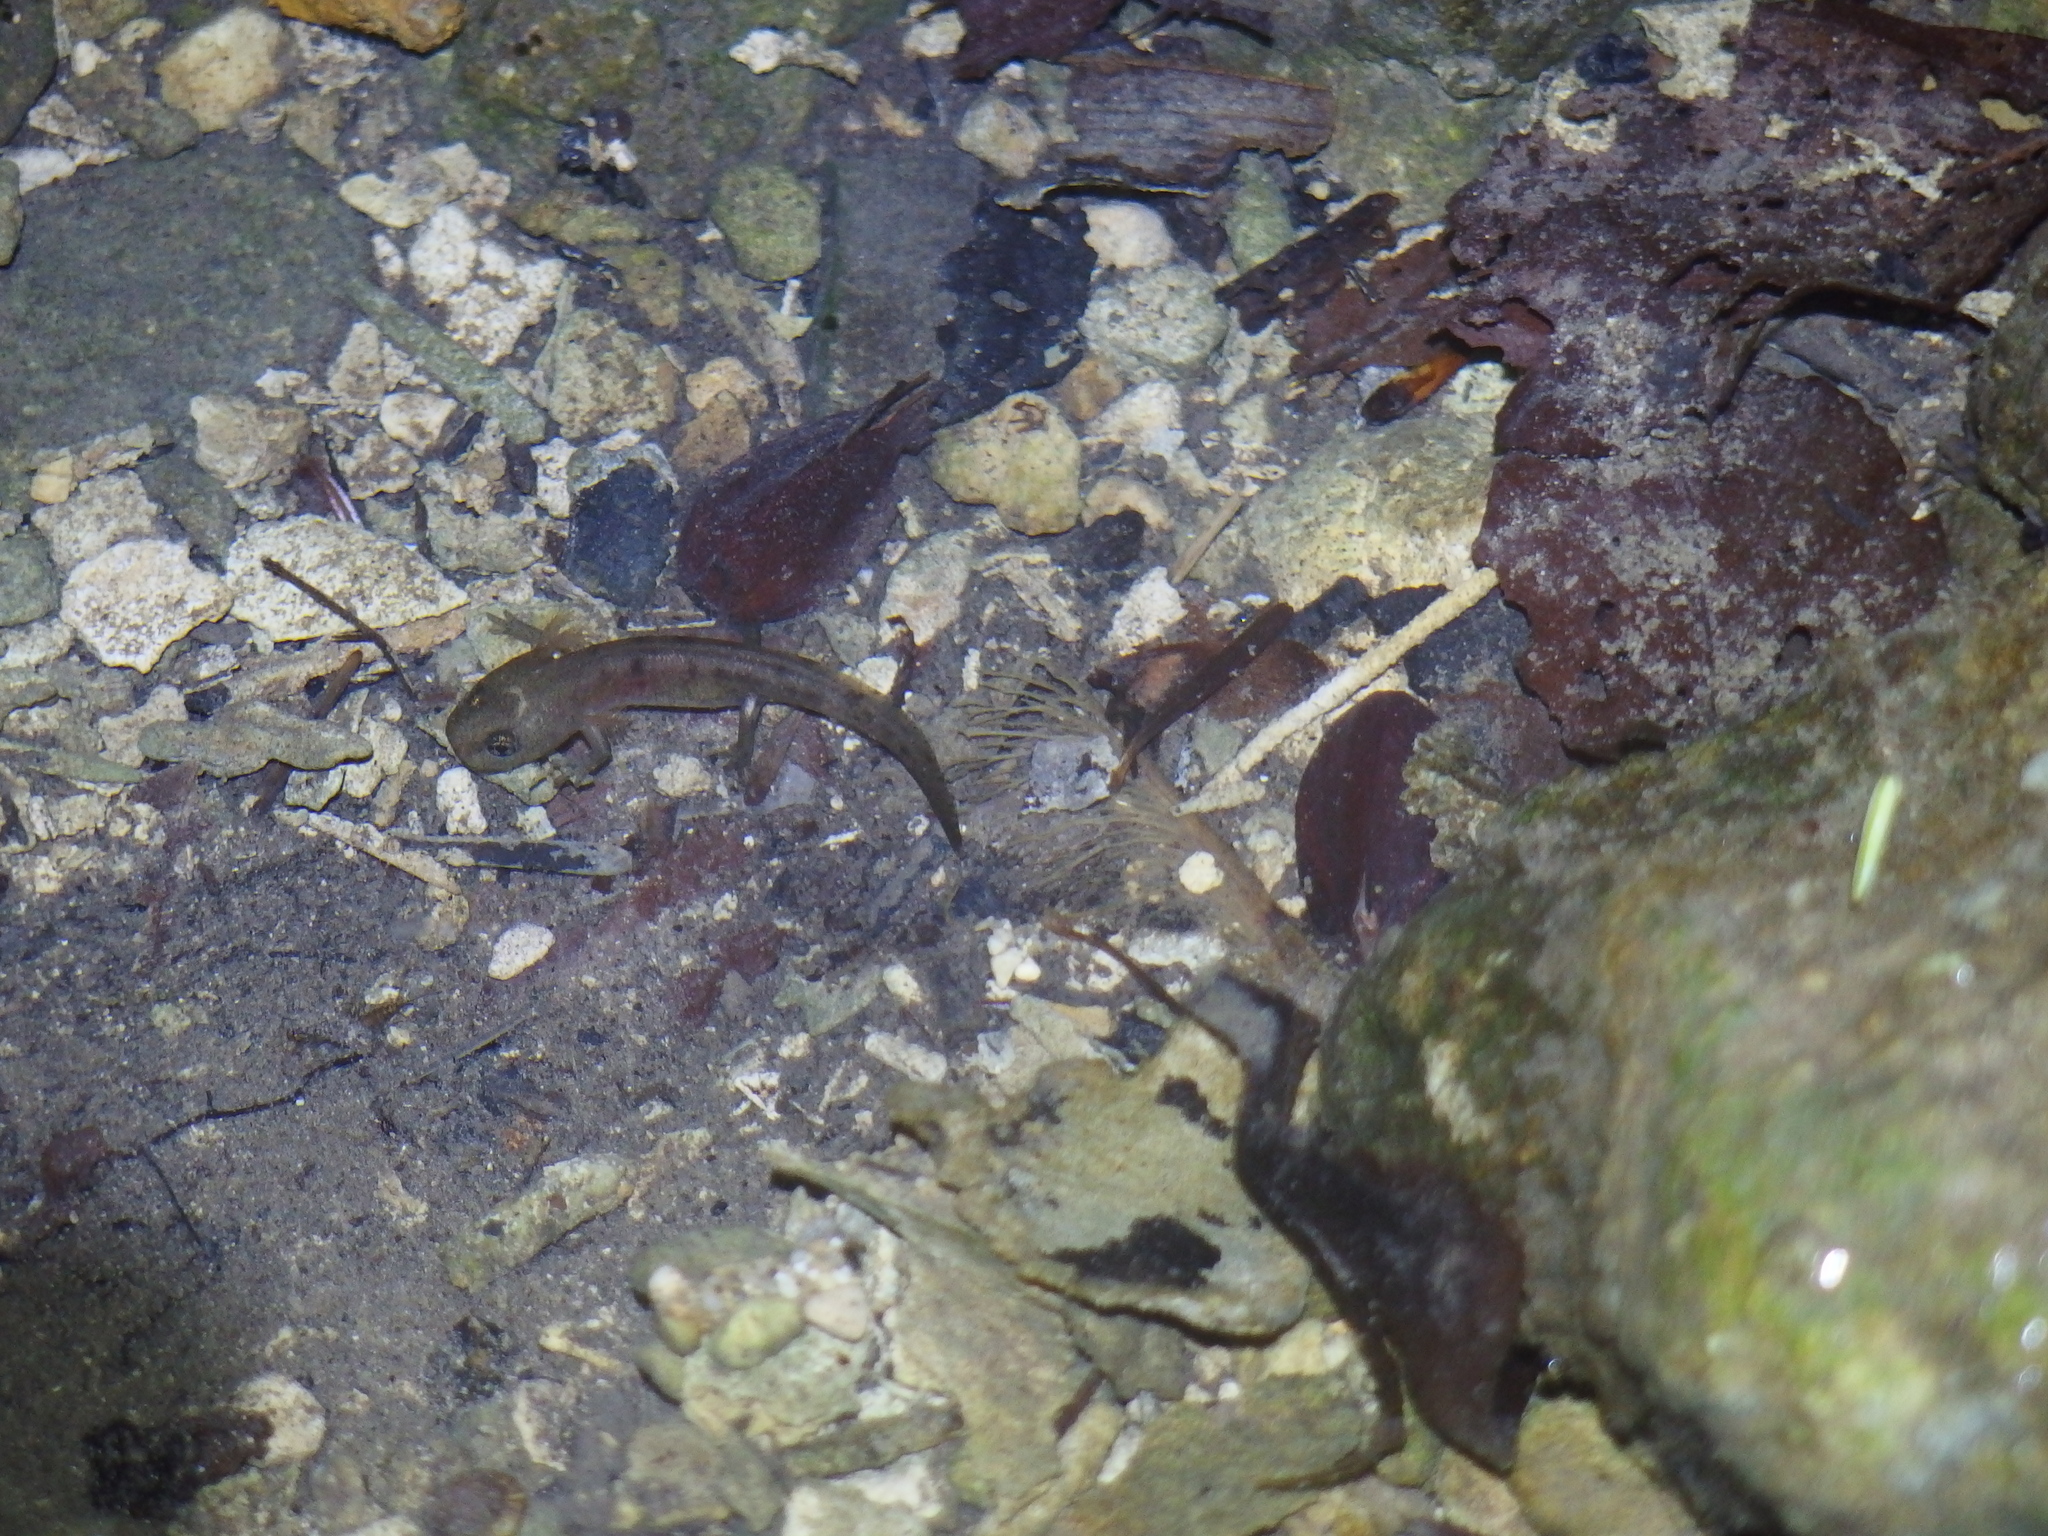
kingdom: Animalia
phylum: Chordata
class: Amphibia
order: Caudata
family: Salamandridae
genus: Salamandra
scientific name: Salamandra salamandra
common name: Fire salamander
